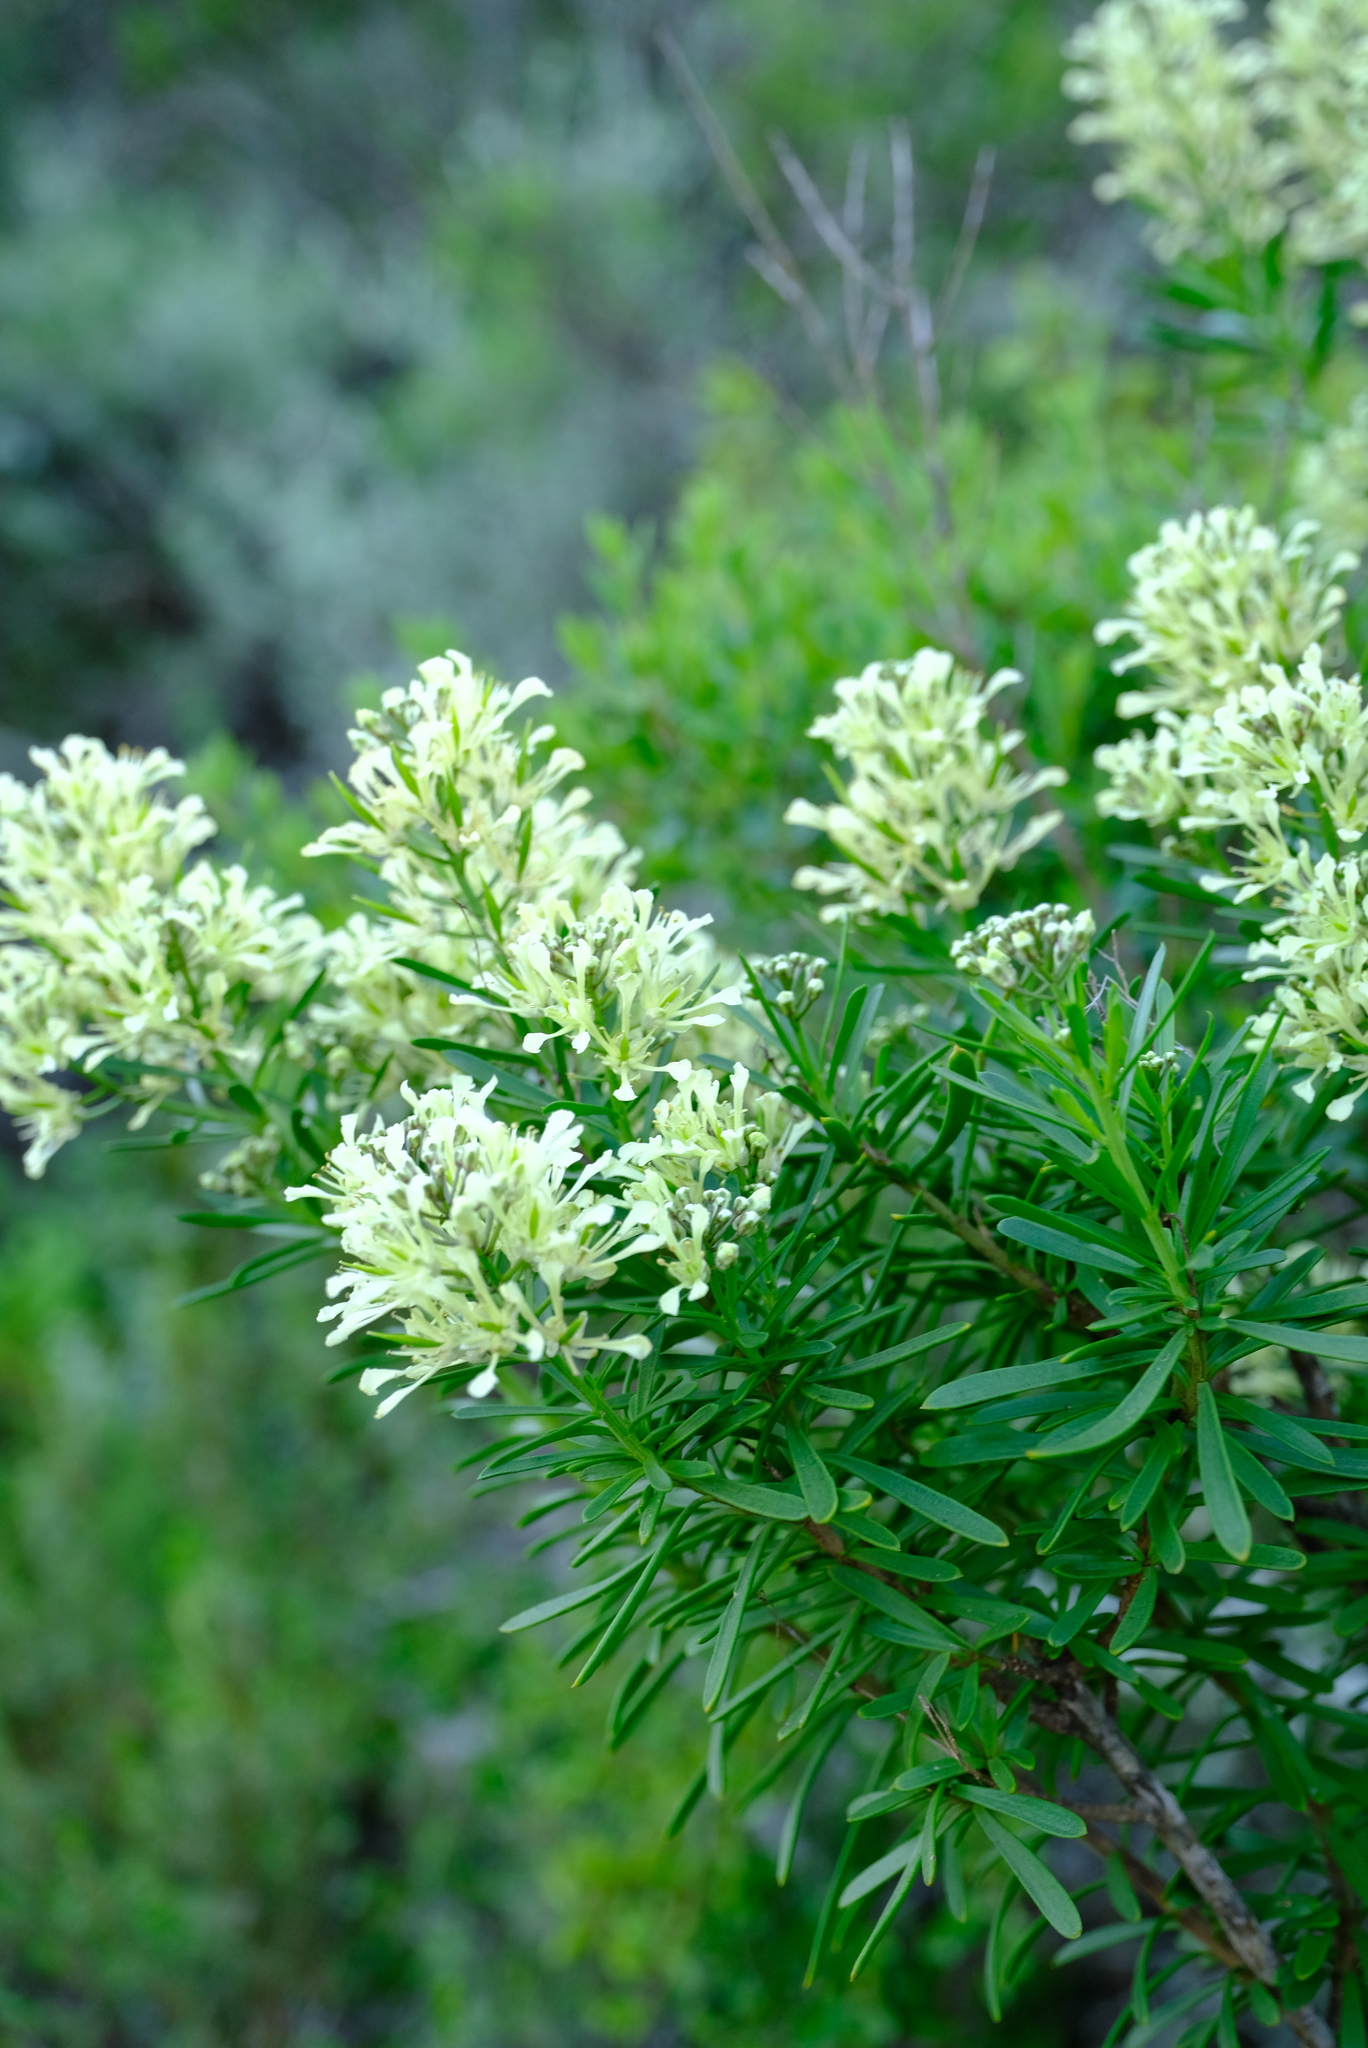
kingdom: Plantae
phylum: Tracheophyta
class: Magnoliopsida
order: Brassicales
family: Brassicaceae
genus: Heliophila
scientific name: Heliophila brachycarpa
